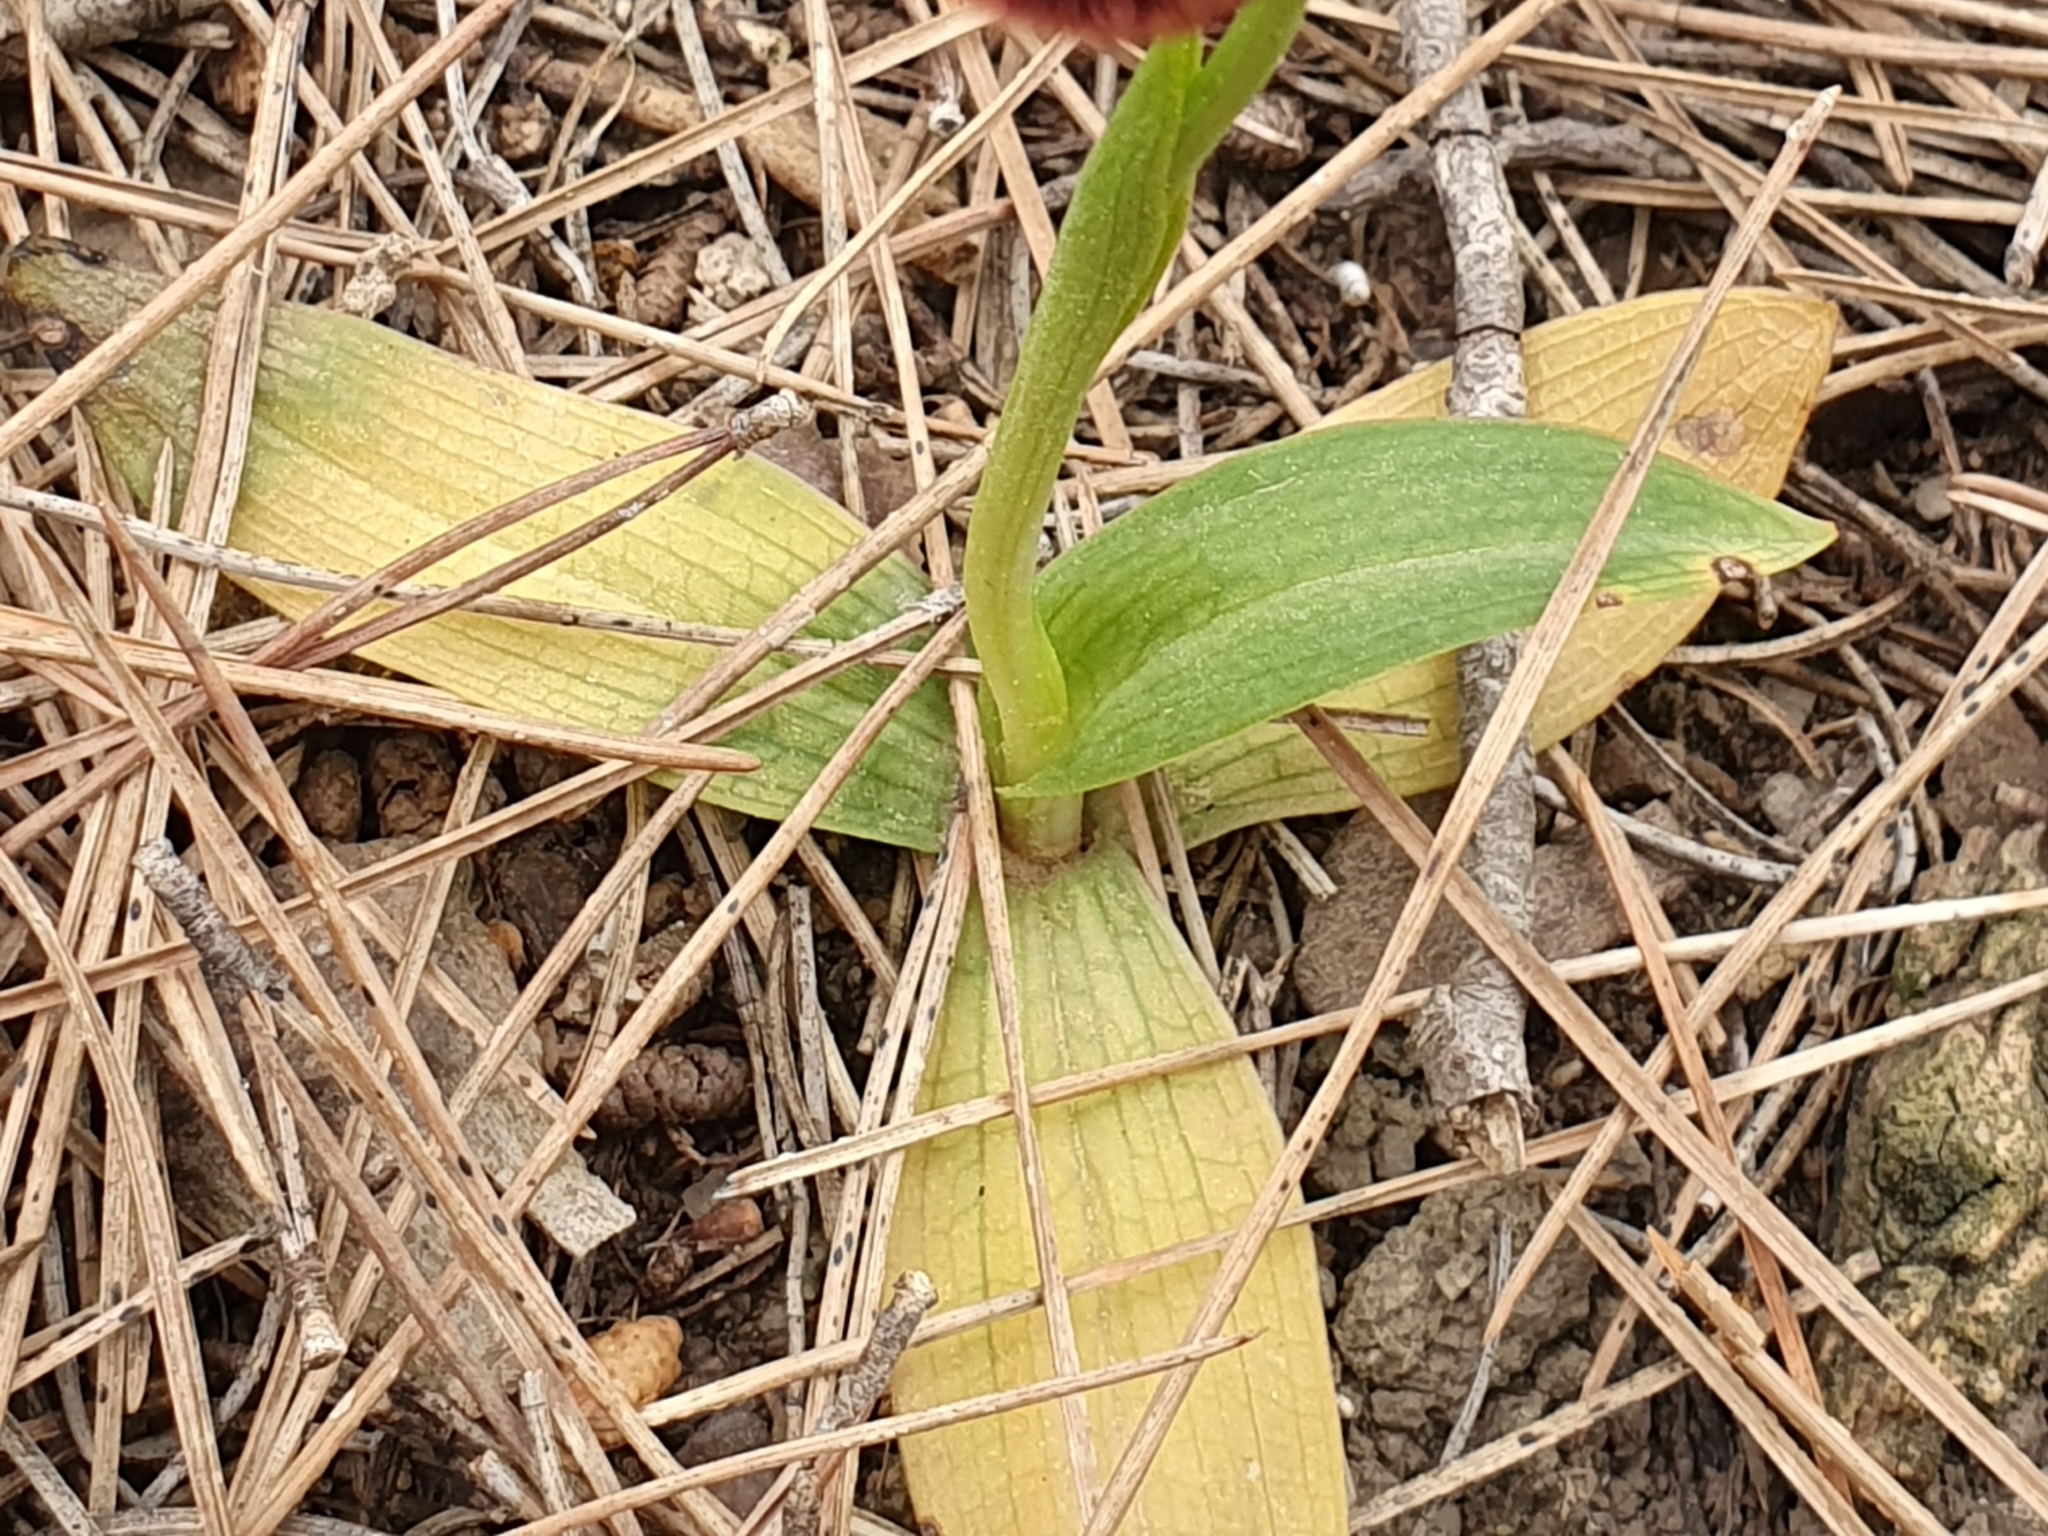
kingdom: Plantae
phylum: Tracheophyta
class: Liliopsida
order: Asparagales
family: Orchidaceae
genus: Ophrys
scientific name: Ophrys speculum
